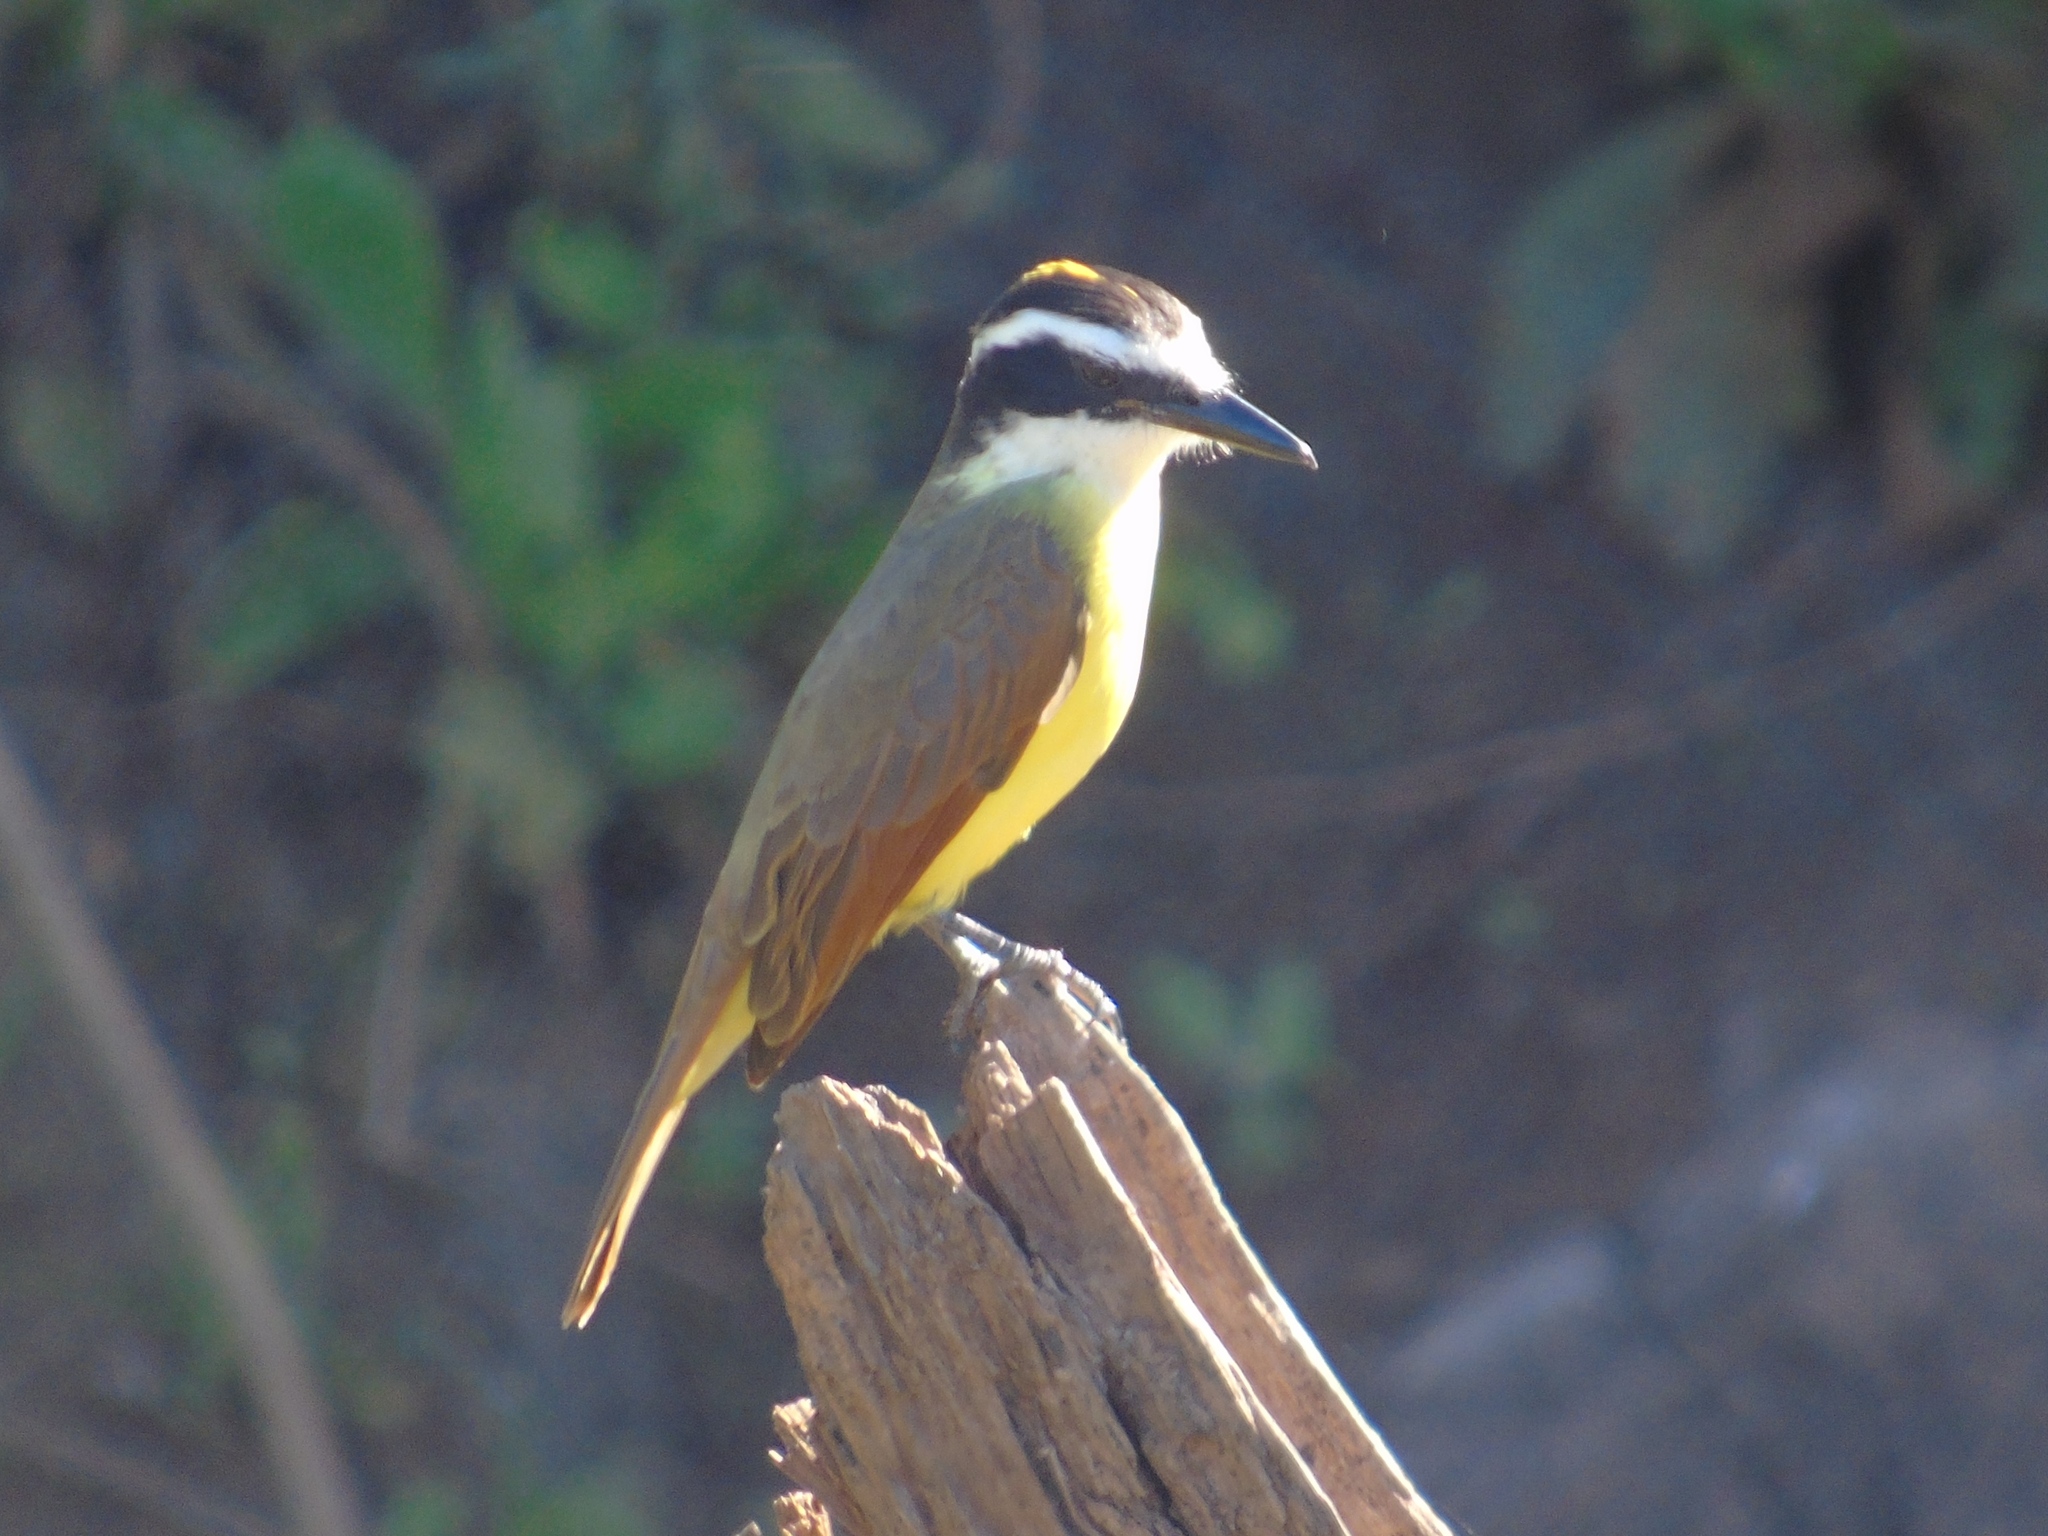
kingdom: Animalia
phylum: Chordata
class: Aves
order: Passeriformes
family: Tyrannidae
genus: Pitangus
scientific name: Pitangus sulphuratus
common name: Great kiskadee
